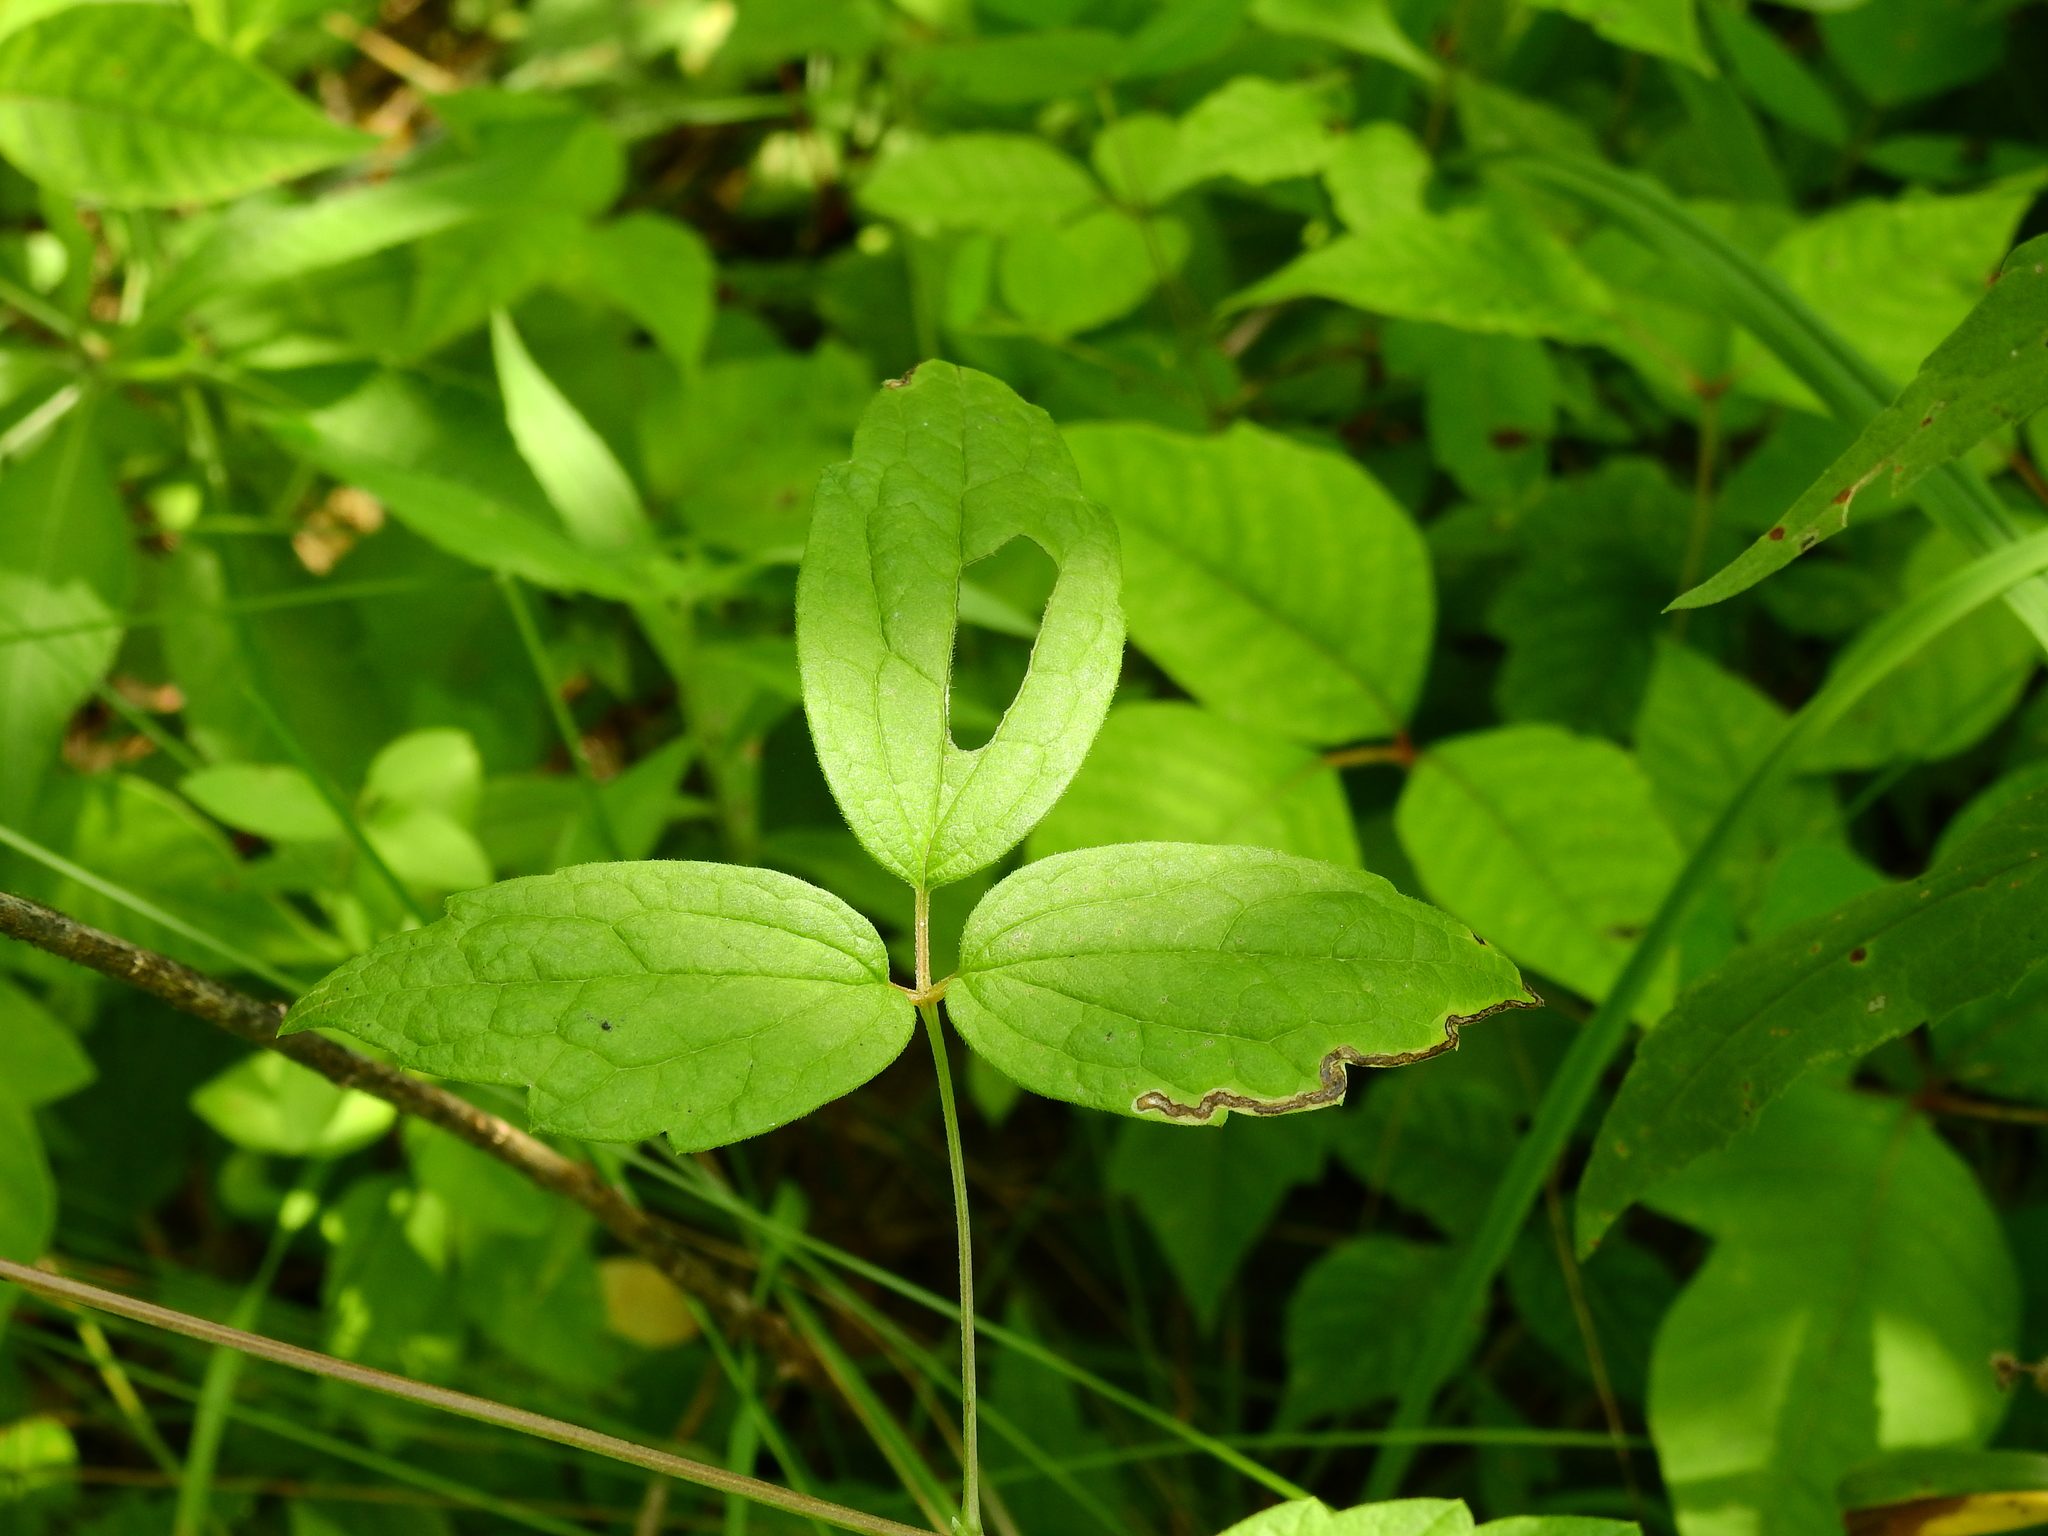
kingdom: Animalia
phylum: Arthropoda
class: Insecta
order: Diptera
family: Agromyzidae
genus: Phytomyza
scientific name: Phytomyza loewii
